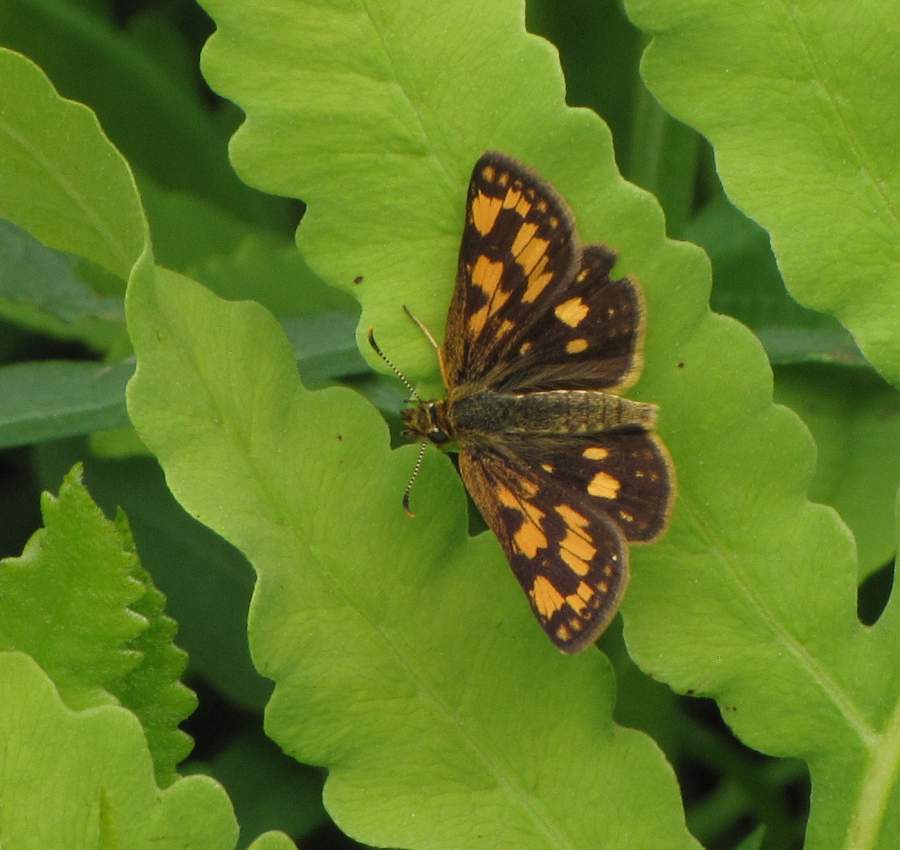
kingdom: Animalia
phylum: Arthropoda
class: Insecta
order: Lepidoptera
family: Hesperiidae
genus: Carterocephalus
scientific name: Carterocephalus mandan
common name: Arctic skipperling
